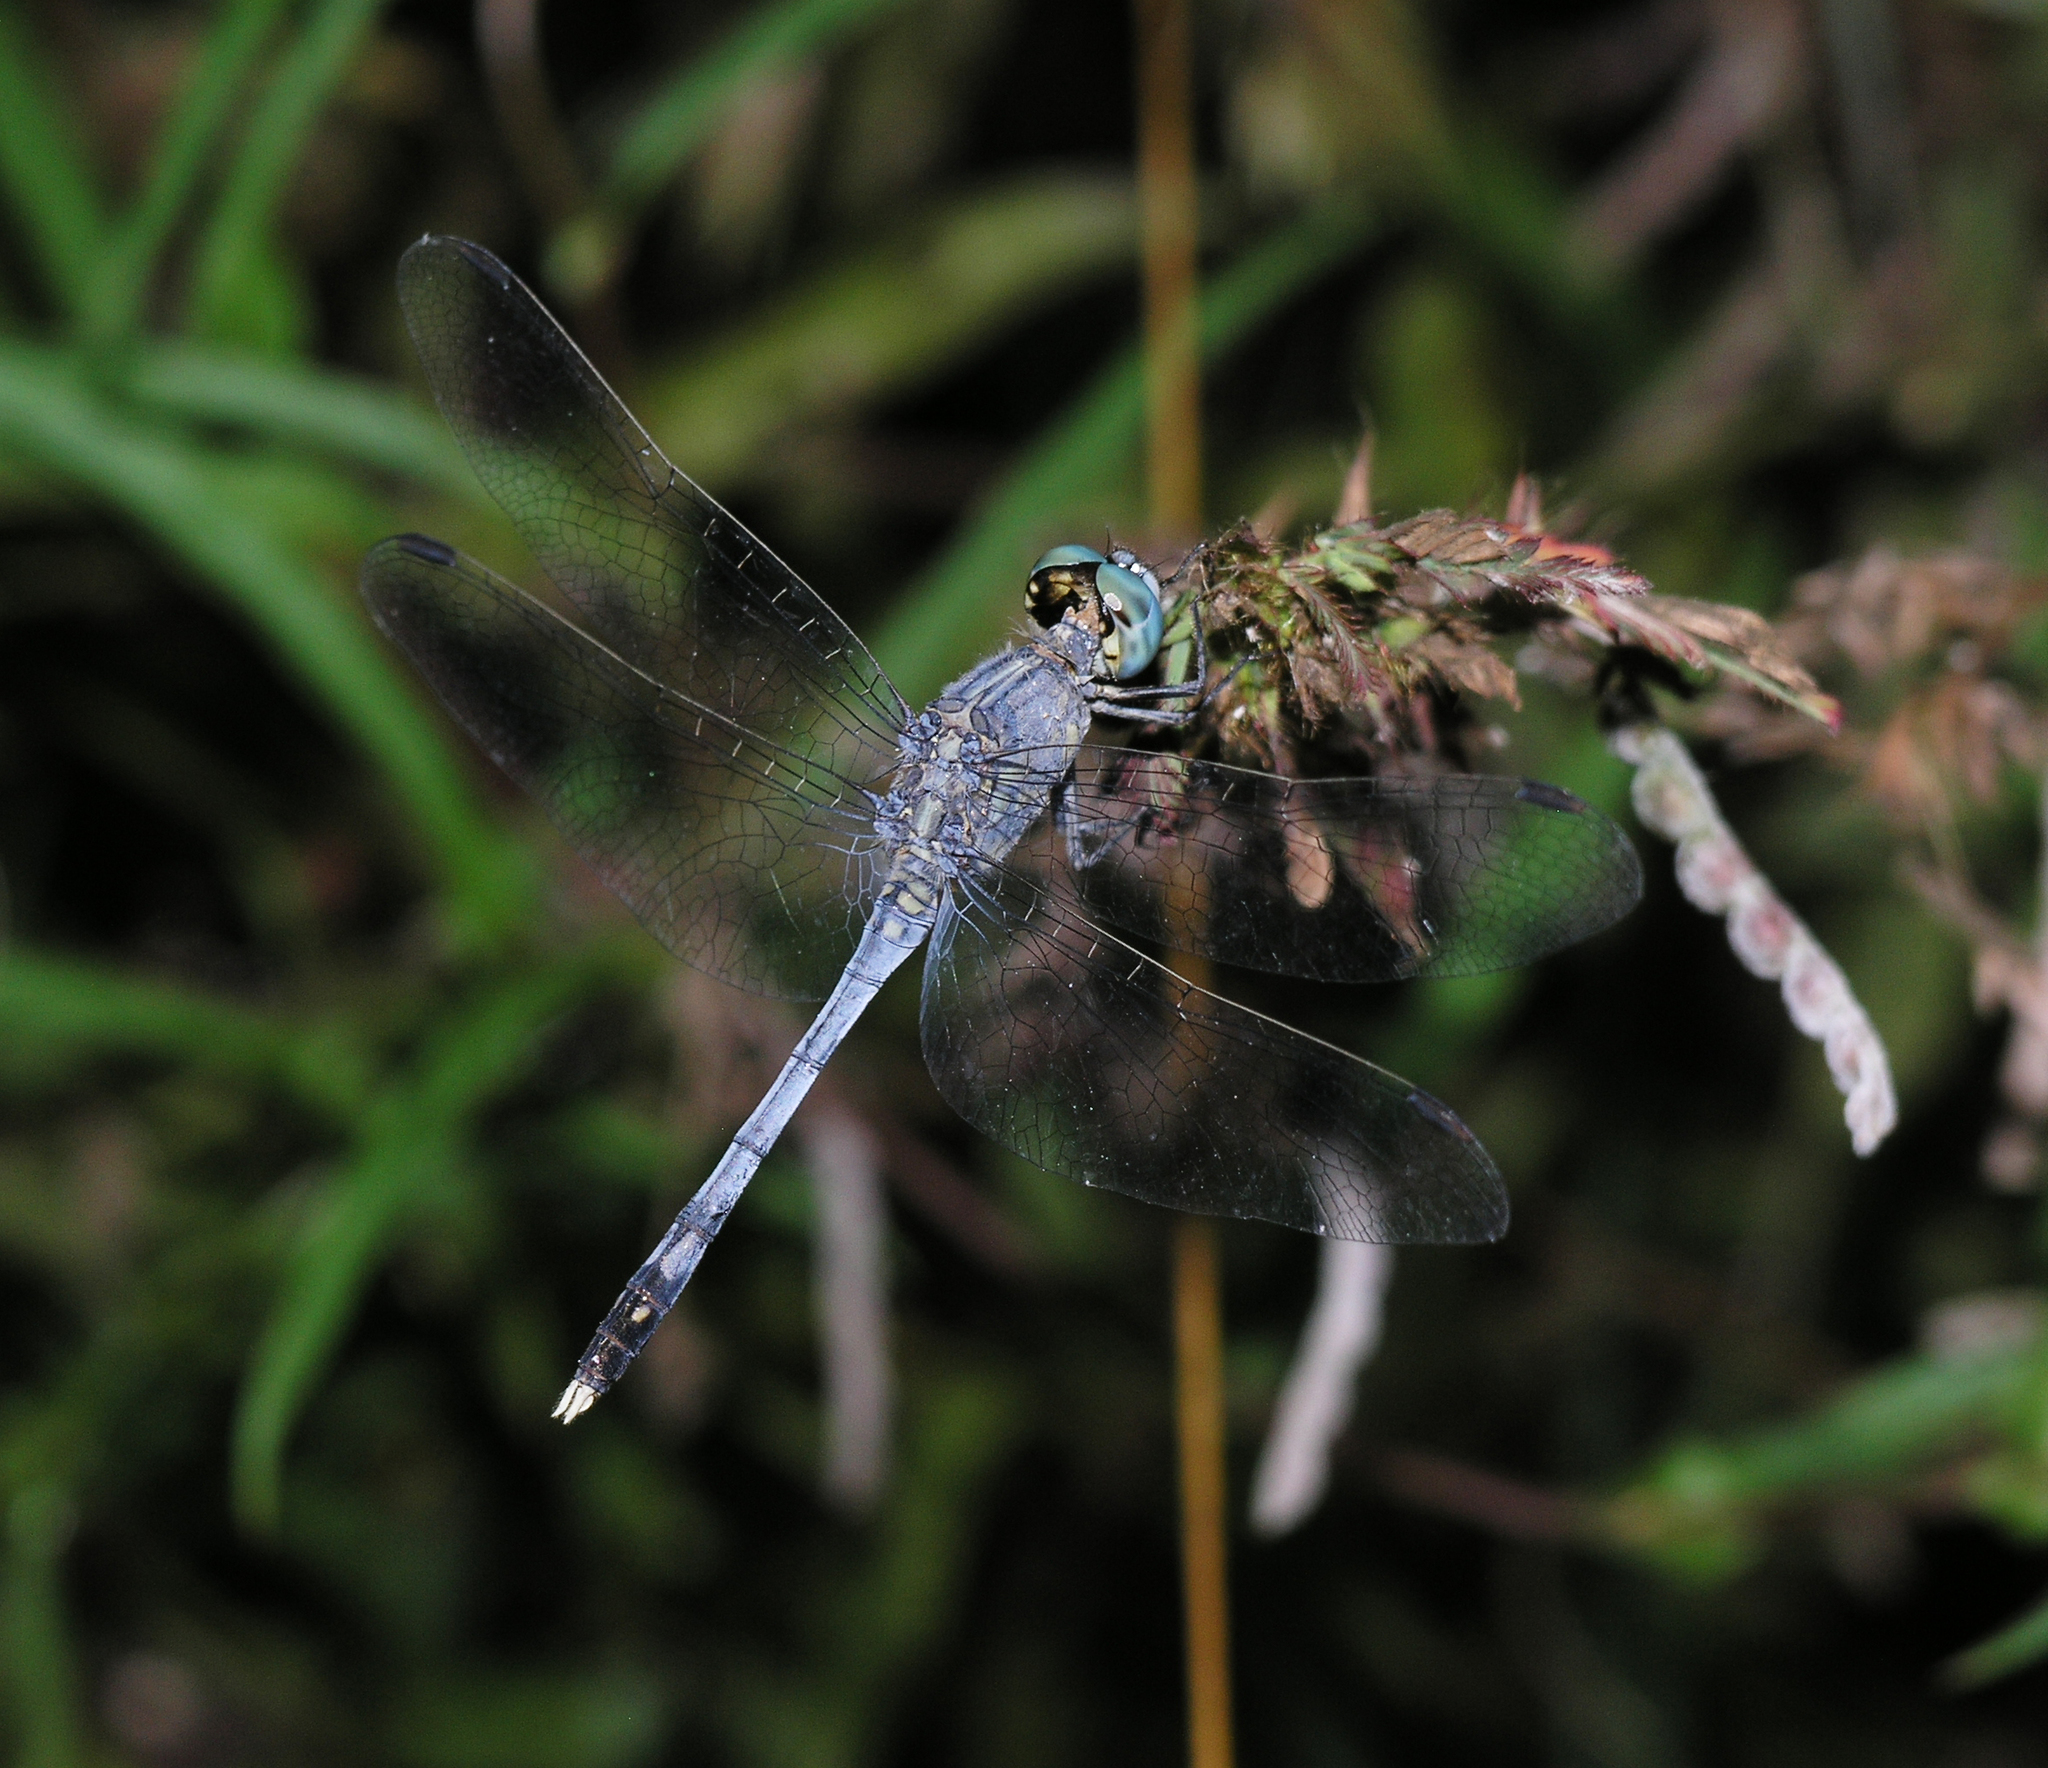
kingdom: Animalia
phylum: Arthropoda
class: Insecta
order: Odonata
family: Libellulidae
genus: Diplacodes
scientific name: Diplacodes trivialis
